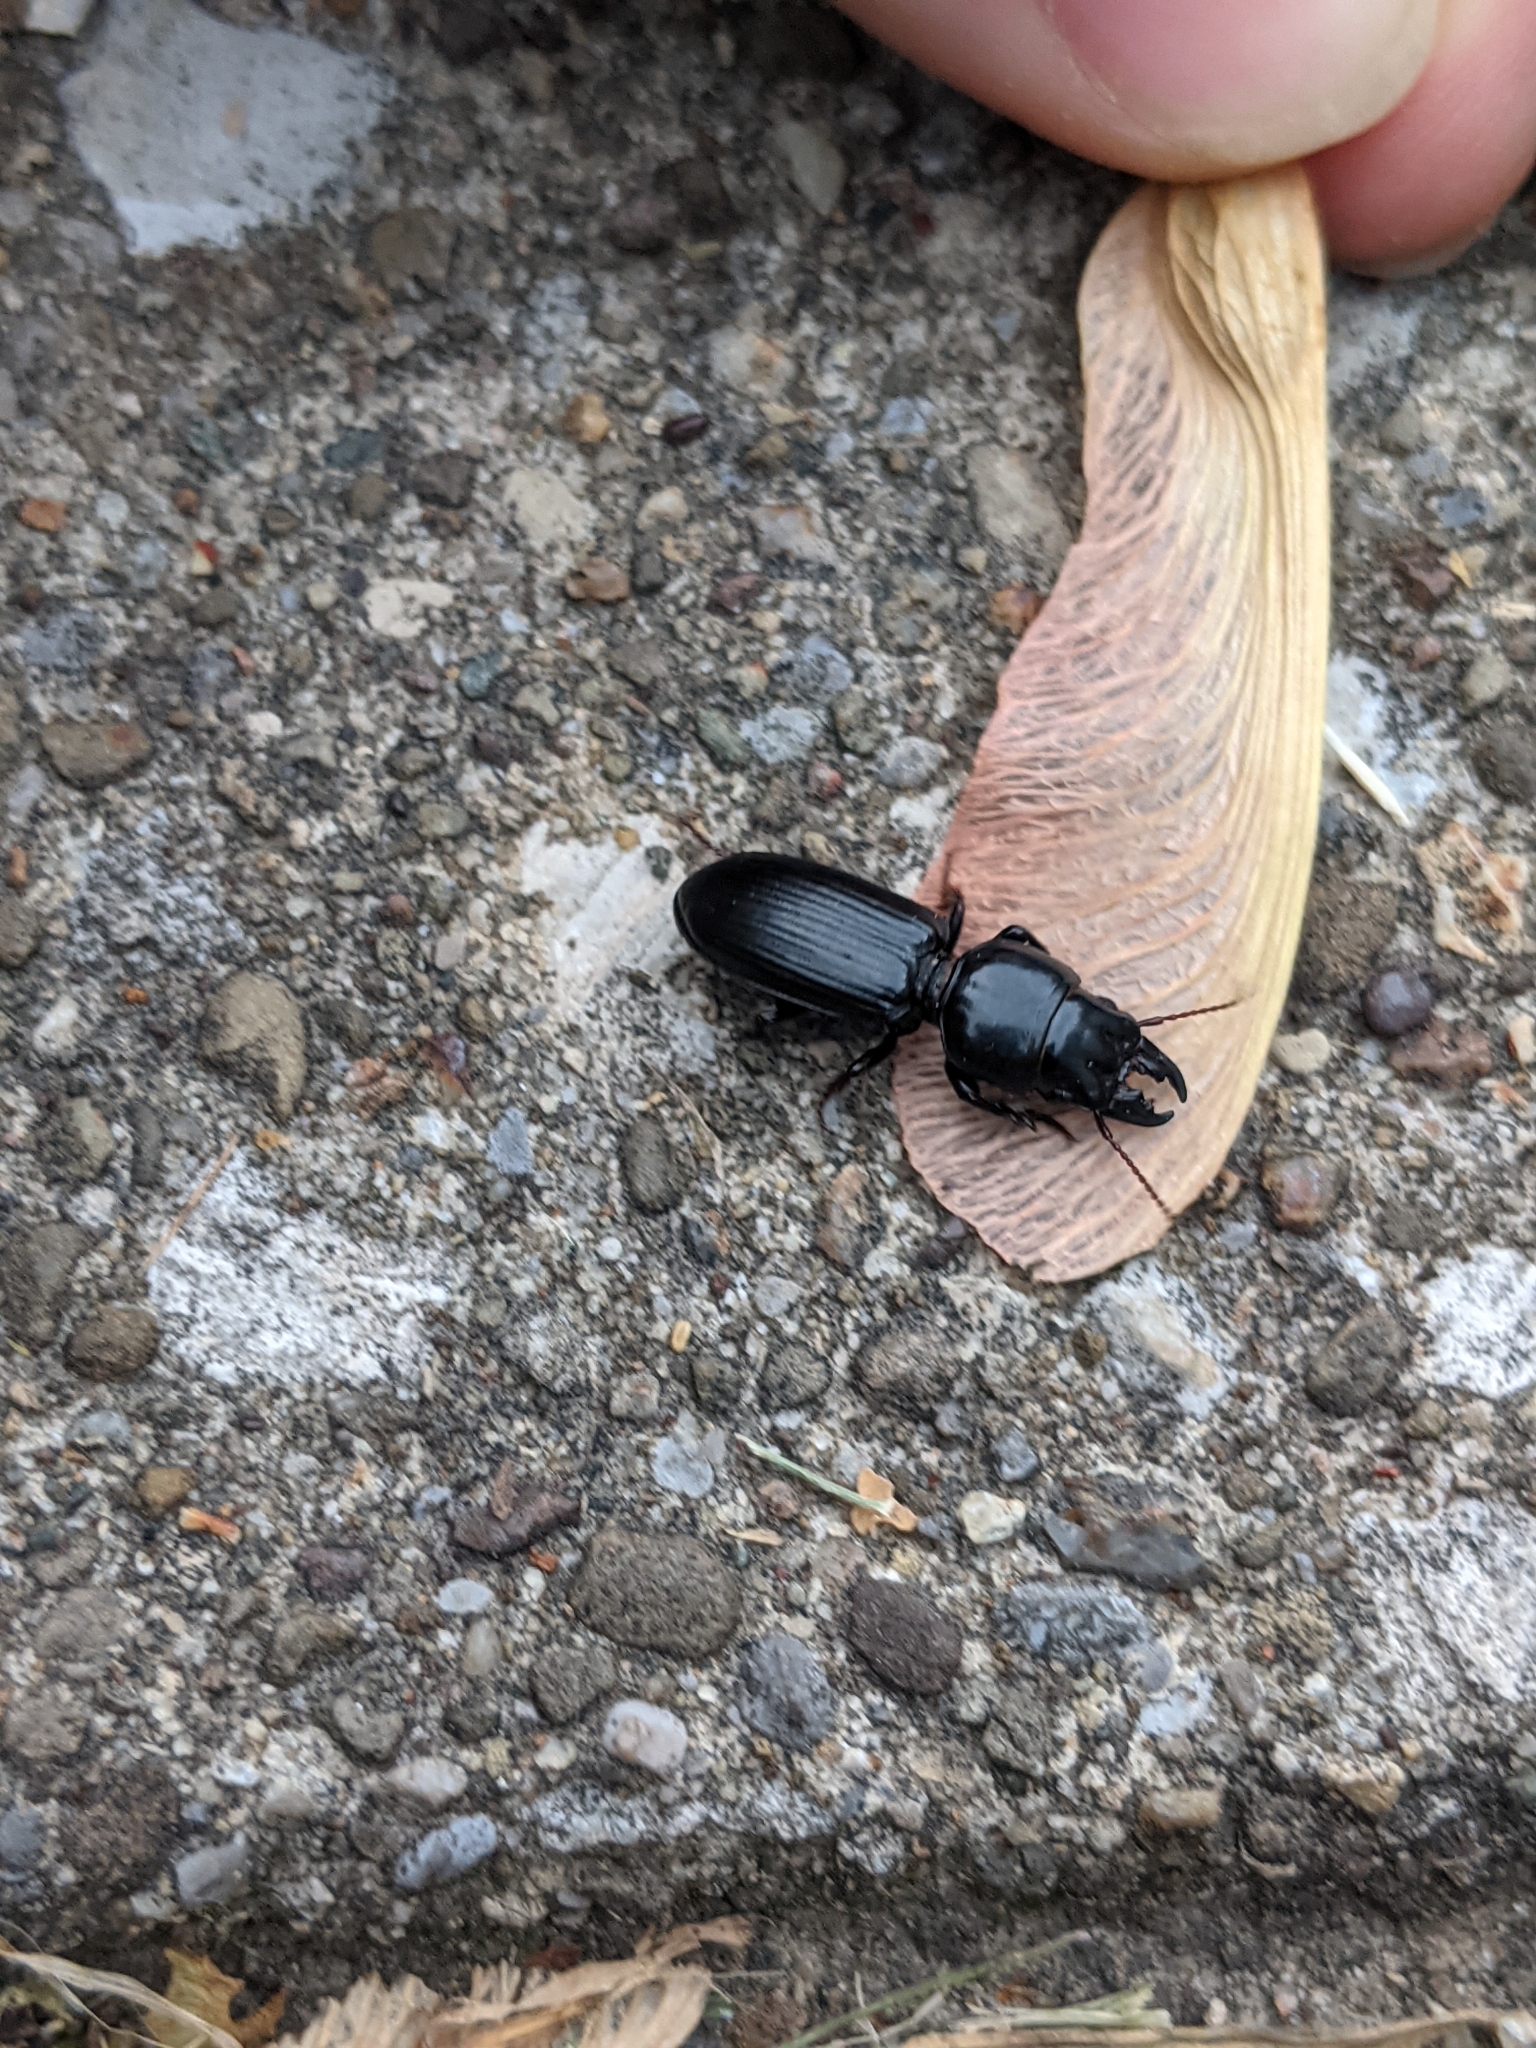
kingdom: Animalia
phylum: Arthropoda
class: Insecta
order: Coleoptera
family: Carabidae
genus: Scarites
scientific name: Scarites subterraneus
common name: Big-headed ground beetle
